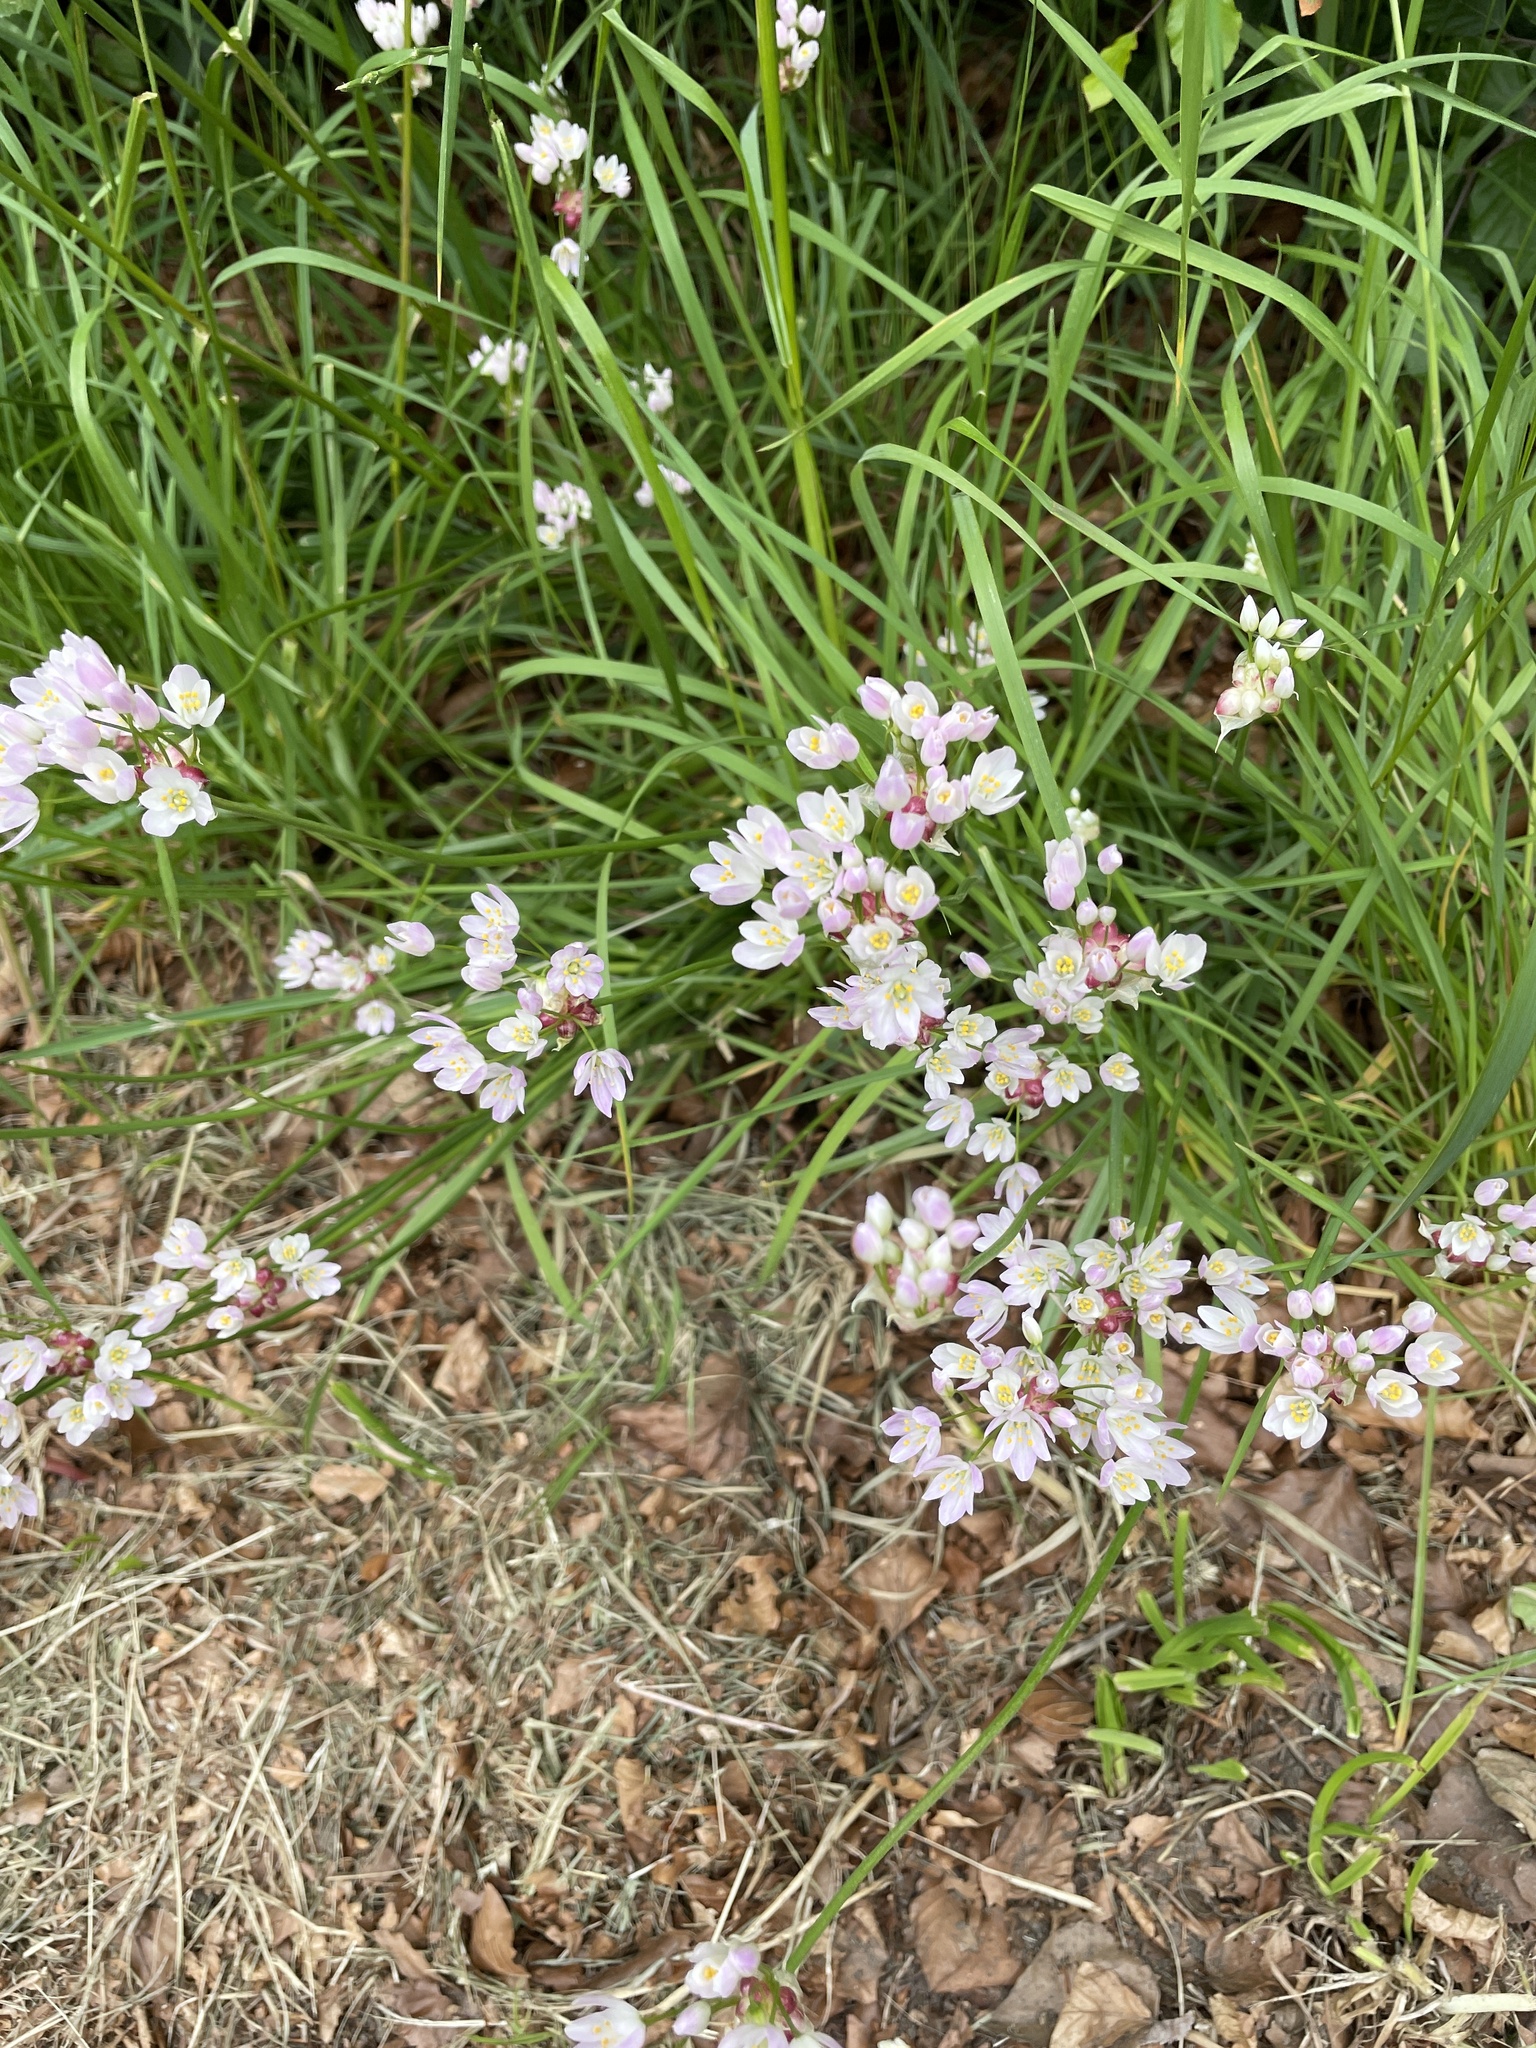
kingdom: Plantae
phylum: Tracheophyta
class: Liliopsida
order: Asparagales
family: Amaryllidaceae
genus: Allium
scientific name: Allium roseum
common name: Rosy garlic
